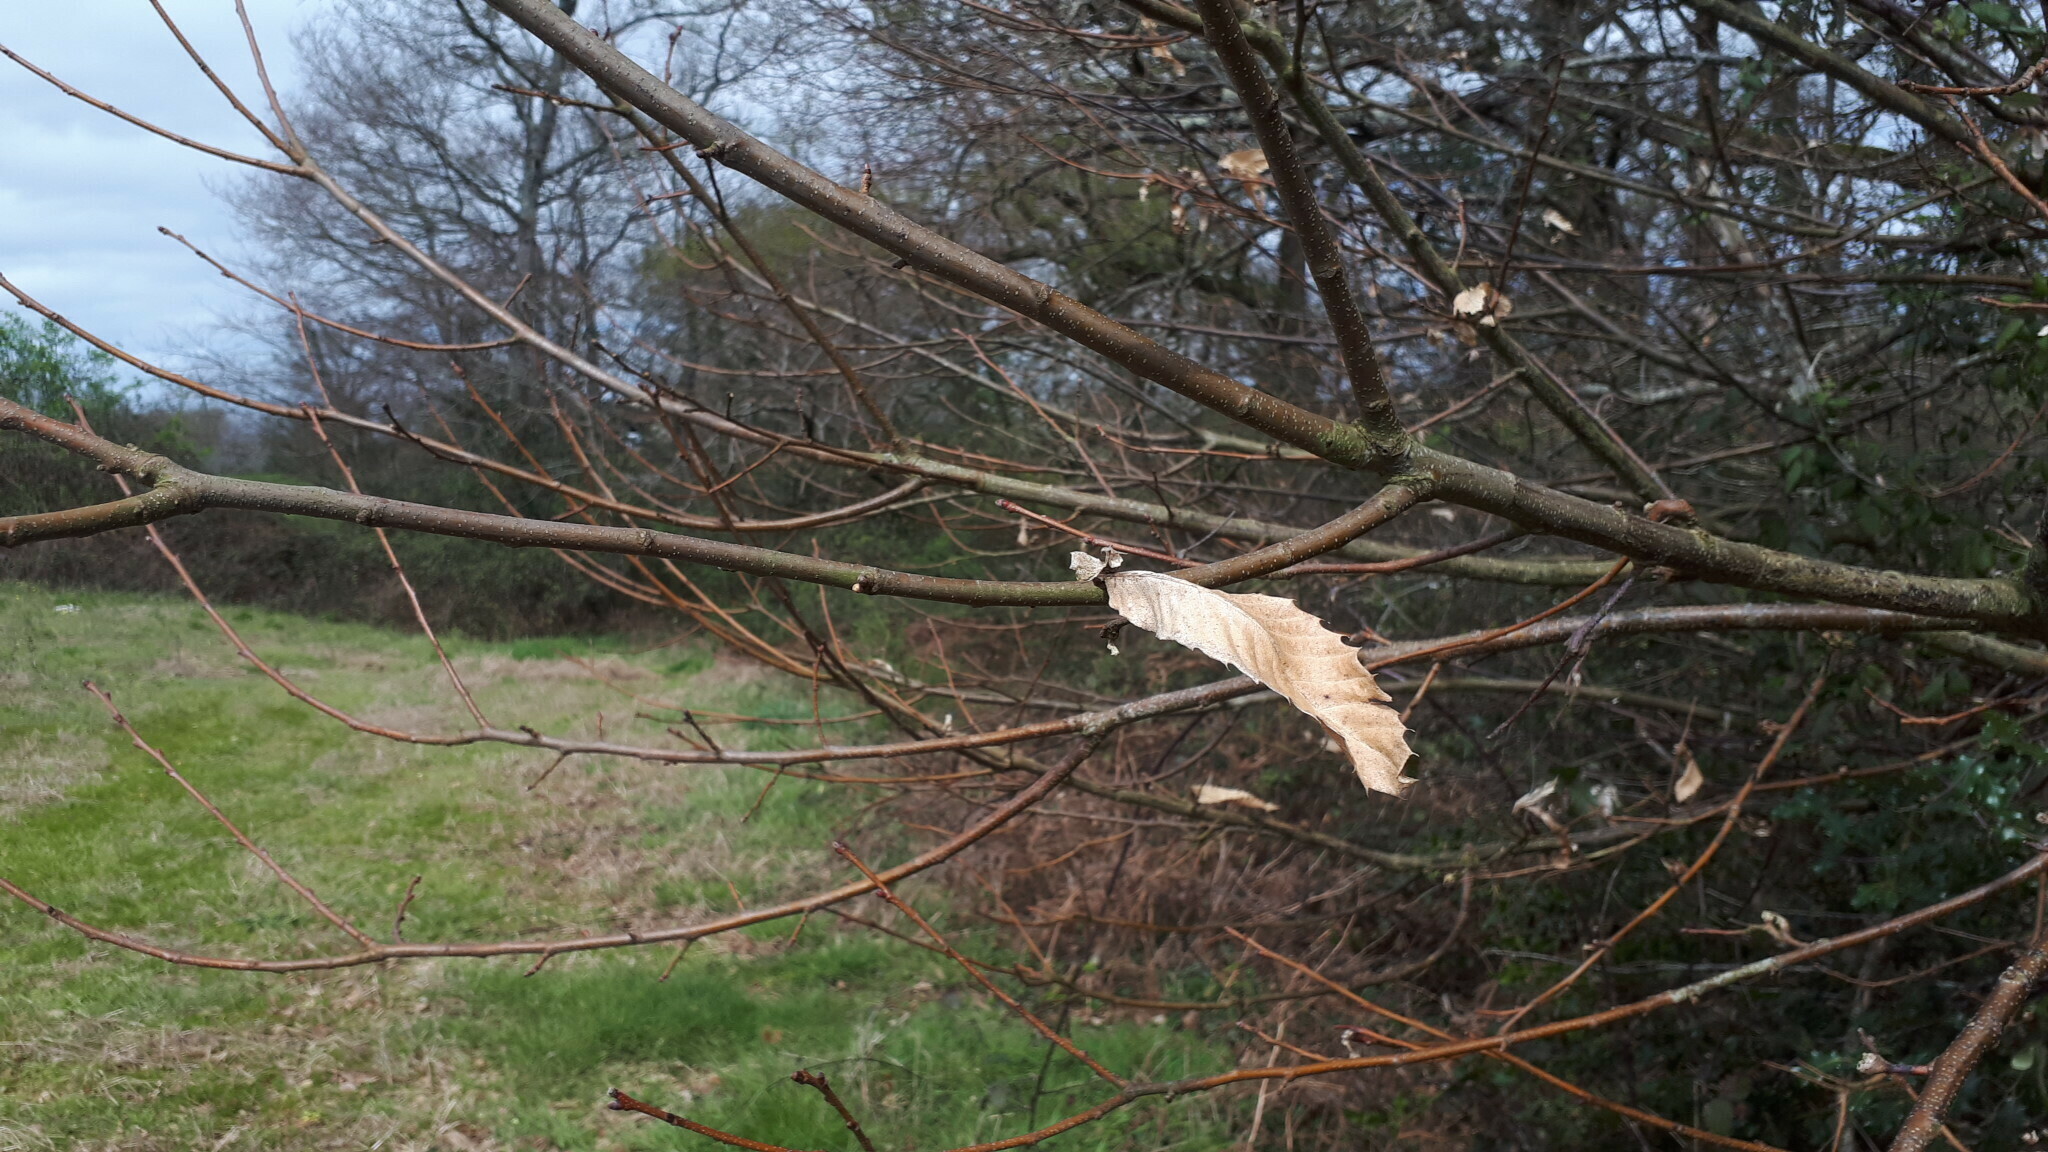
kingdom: Plantae
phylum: Tracheophyta
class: Magnoliopsida
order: Fagales
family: Fagaceae
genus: Castanea
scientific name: Castanea sativa
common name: Sweet chestnut
